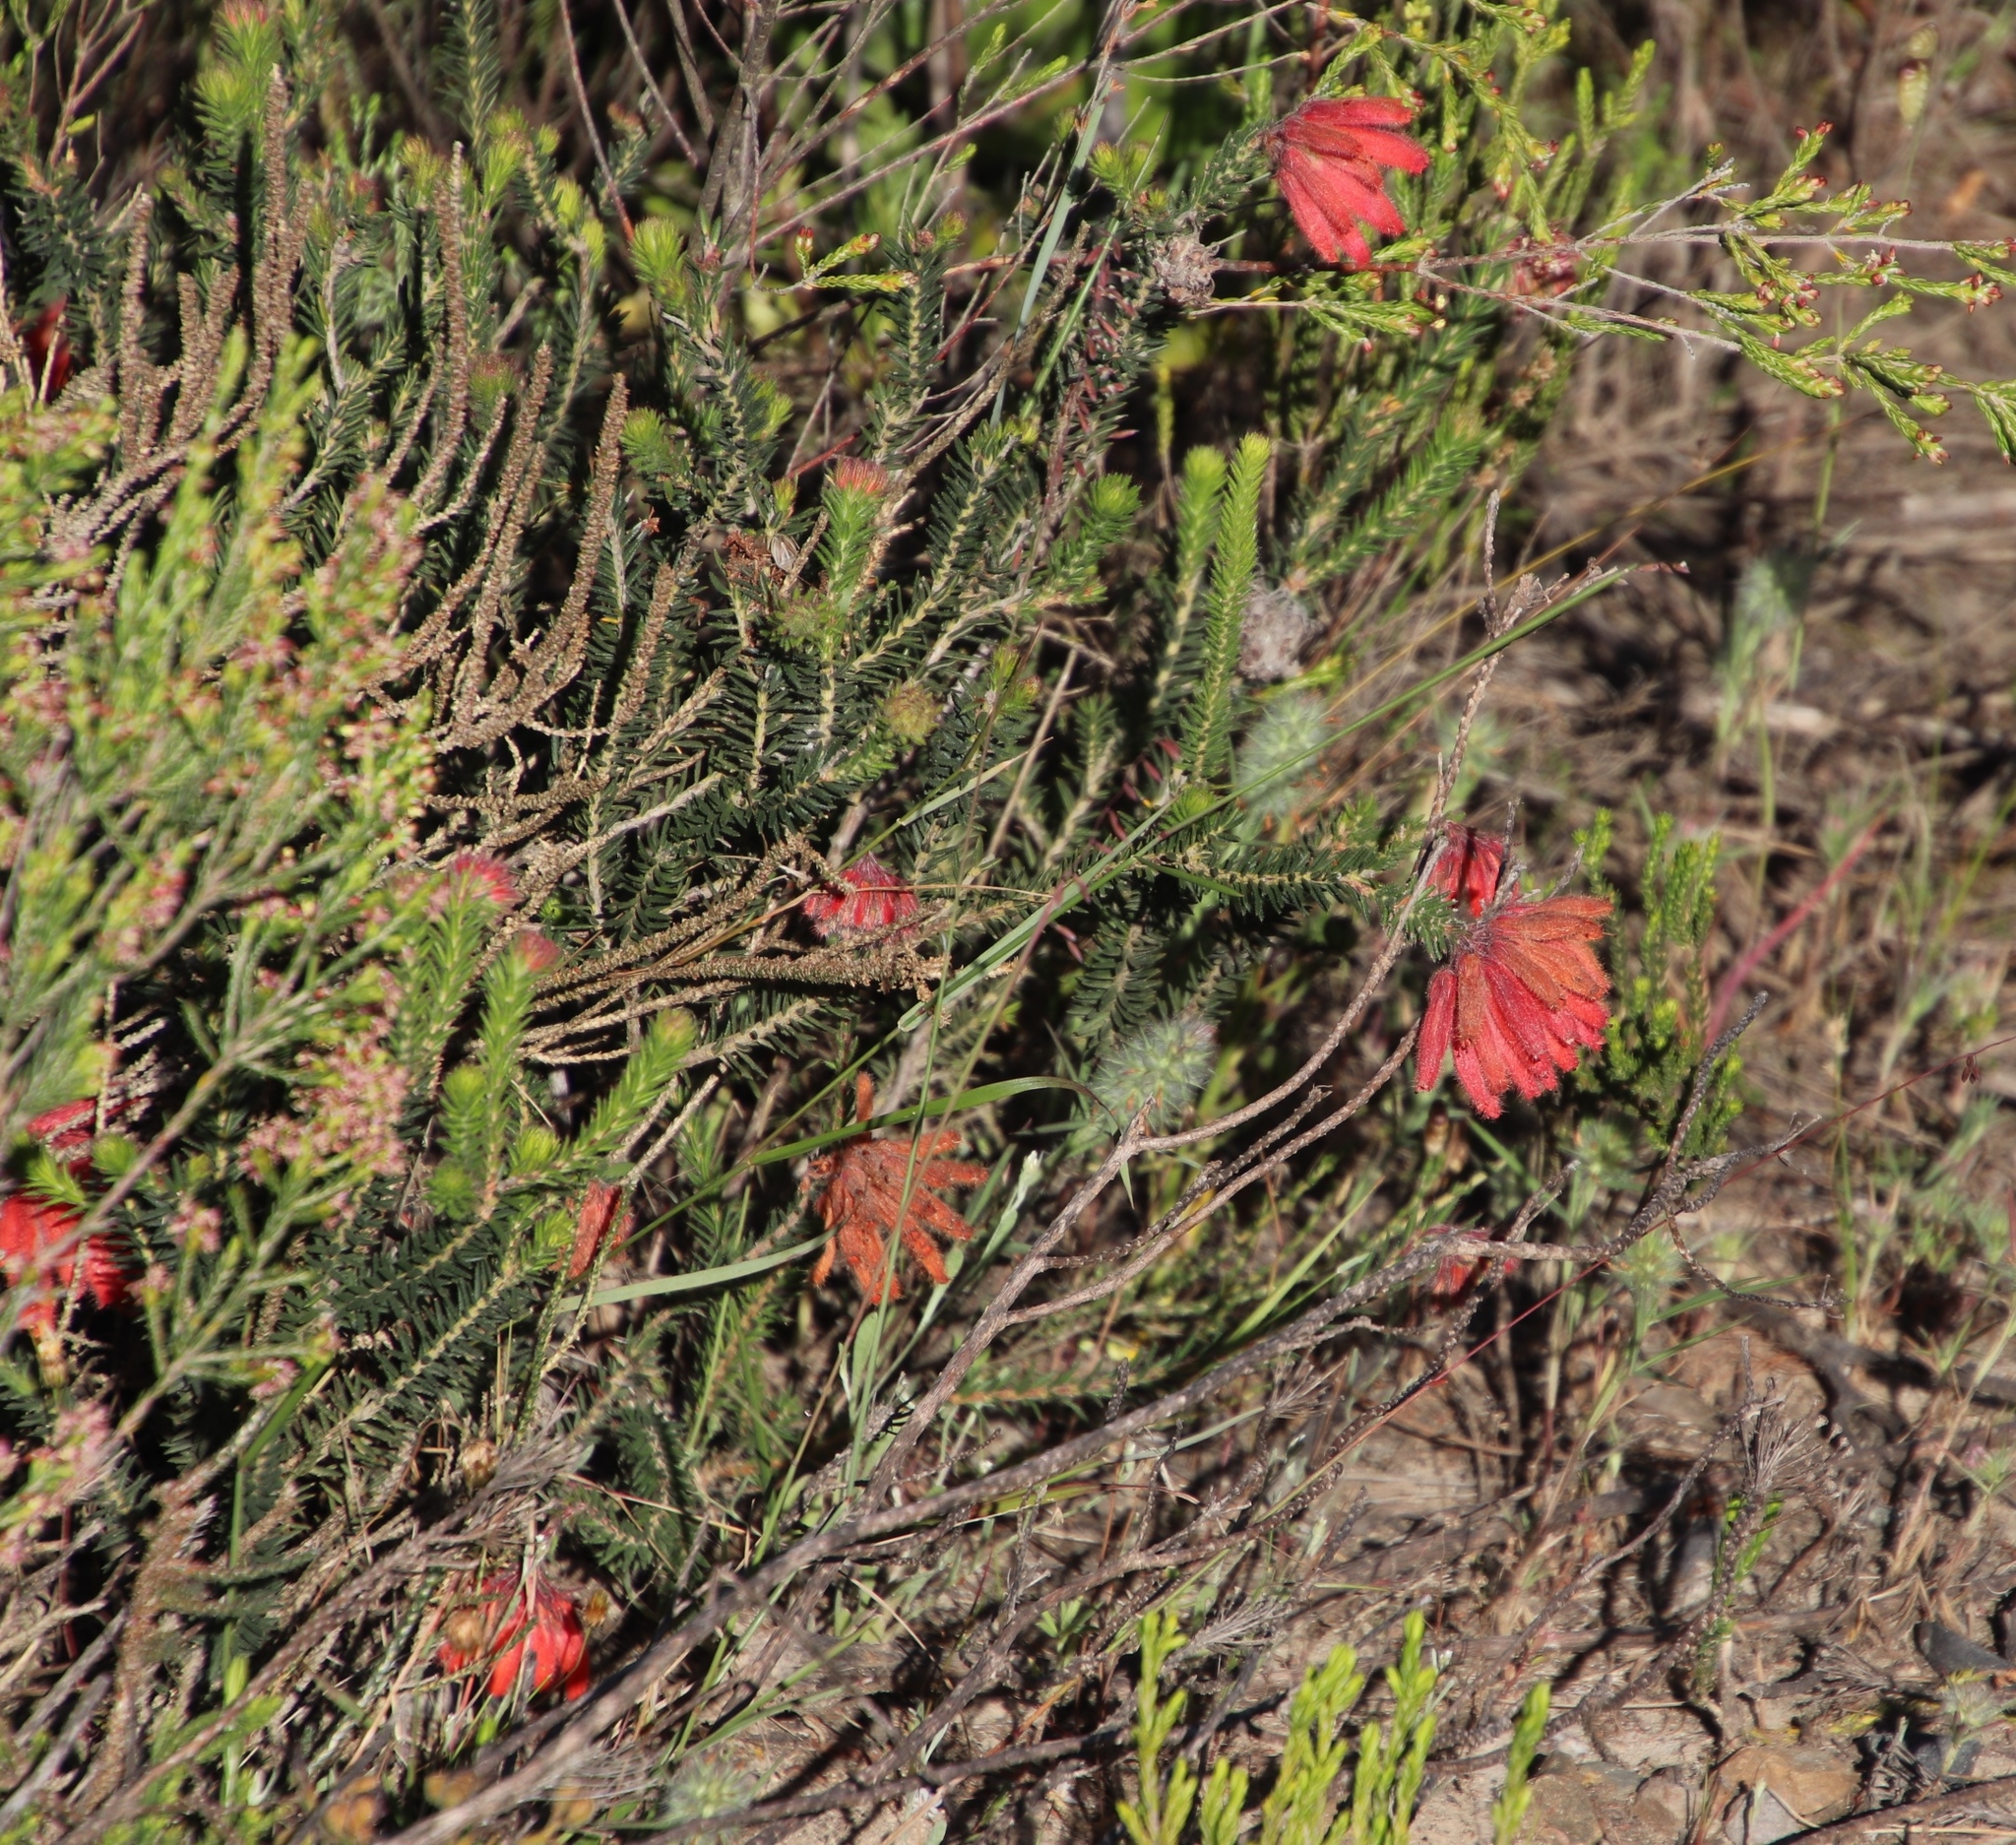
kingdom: Plantae
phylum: Tracheophyta
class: Magnoliopsida
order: Ericales
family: Ericaceae
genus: Erica
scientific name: Erica cerinthoides
